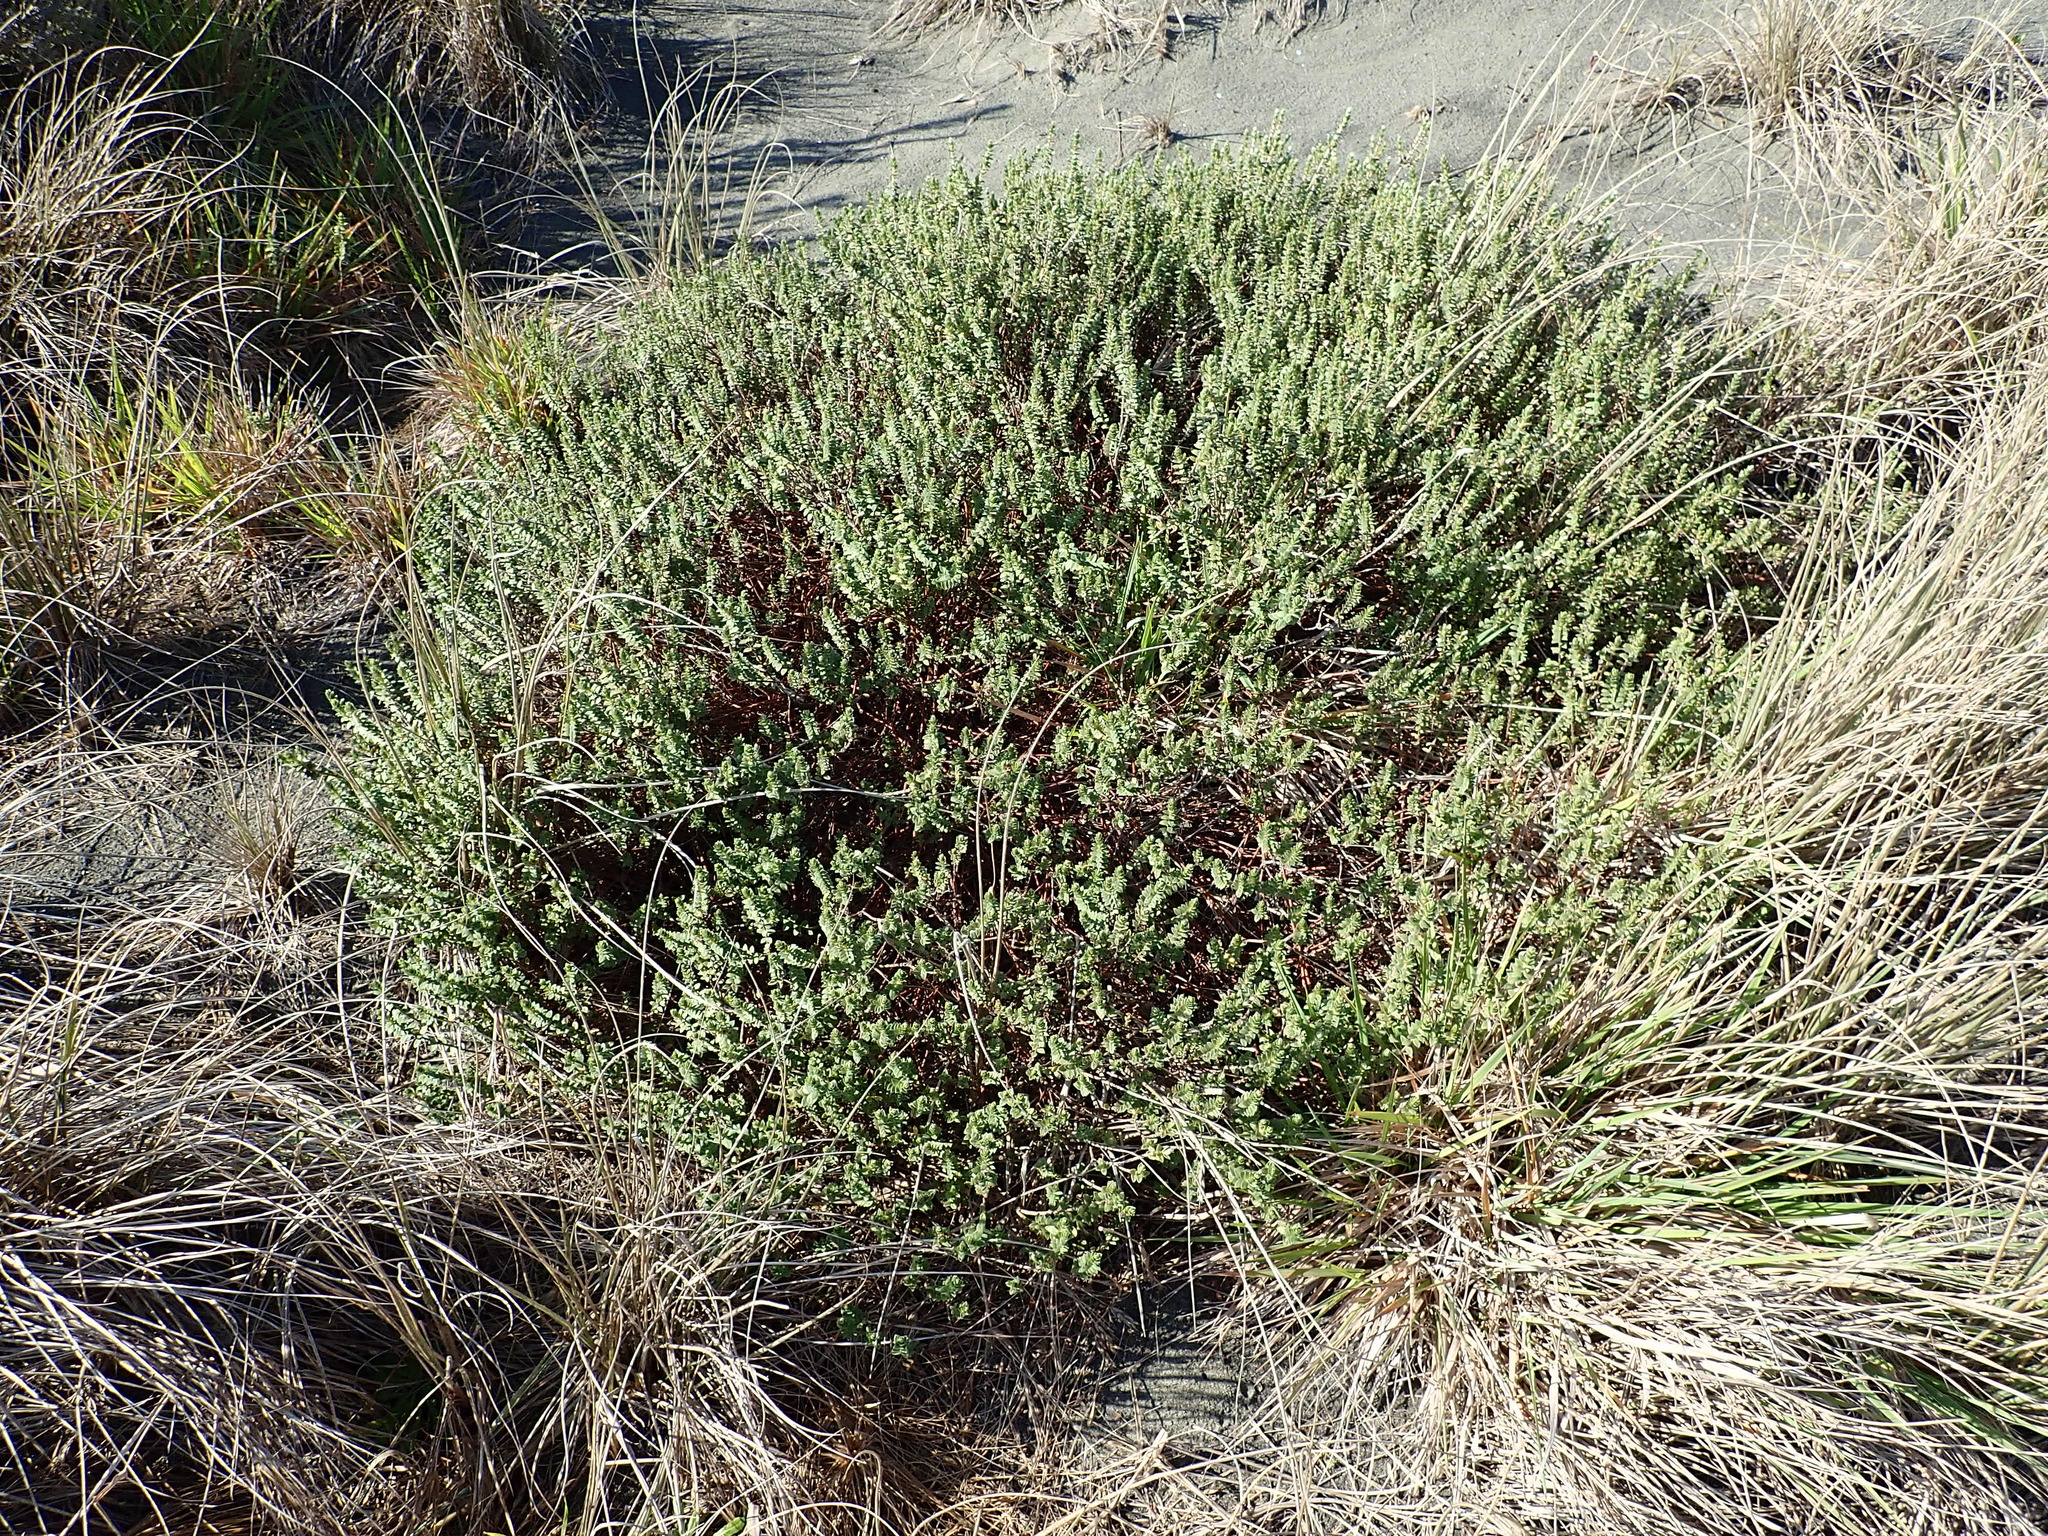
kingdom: Plantae
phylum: Tracheophyta
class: Magnoliopsida
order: Malvales
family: Thymelaeaceae
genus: Pimelea
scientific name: Pimelea villosa
